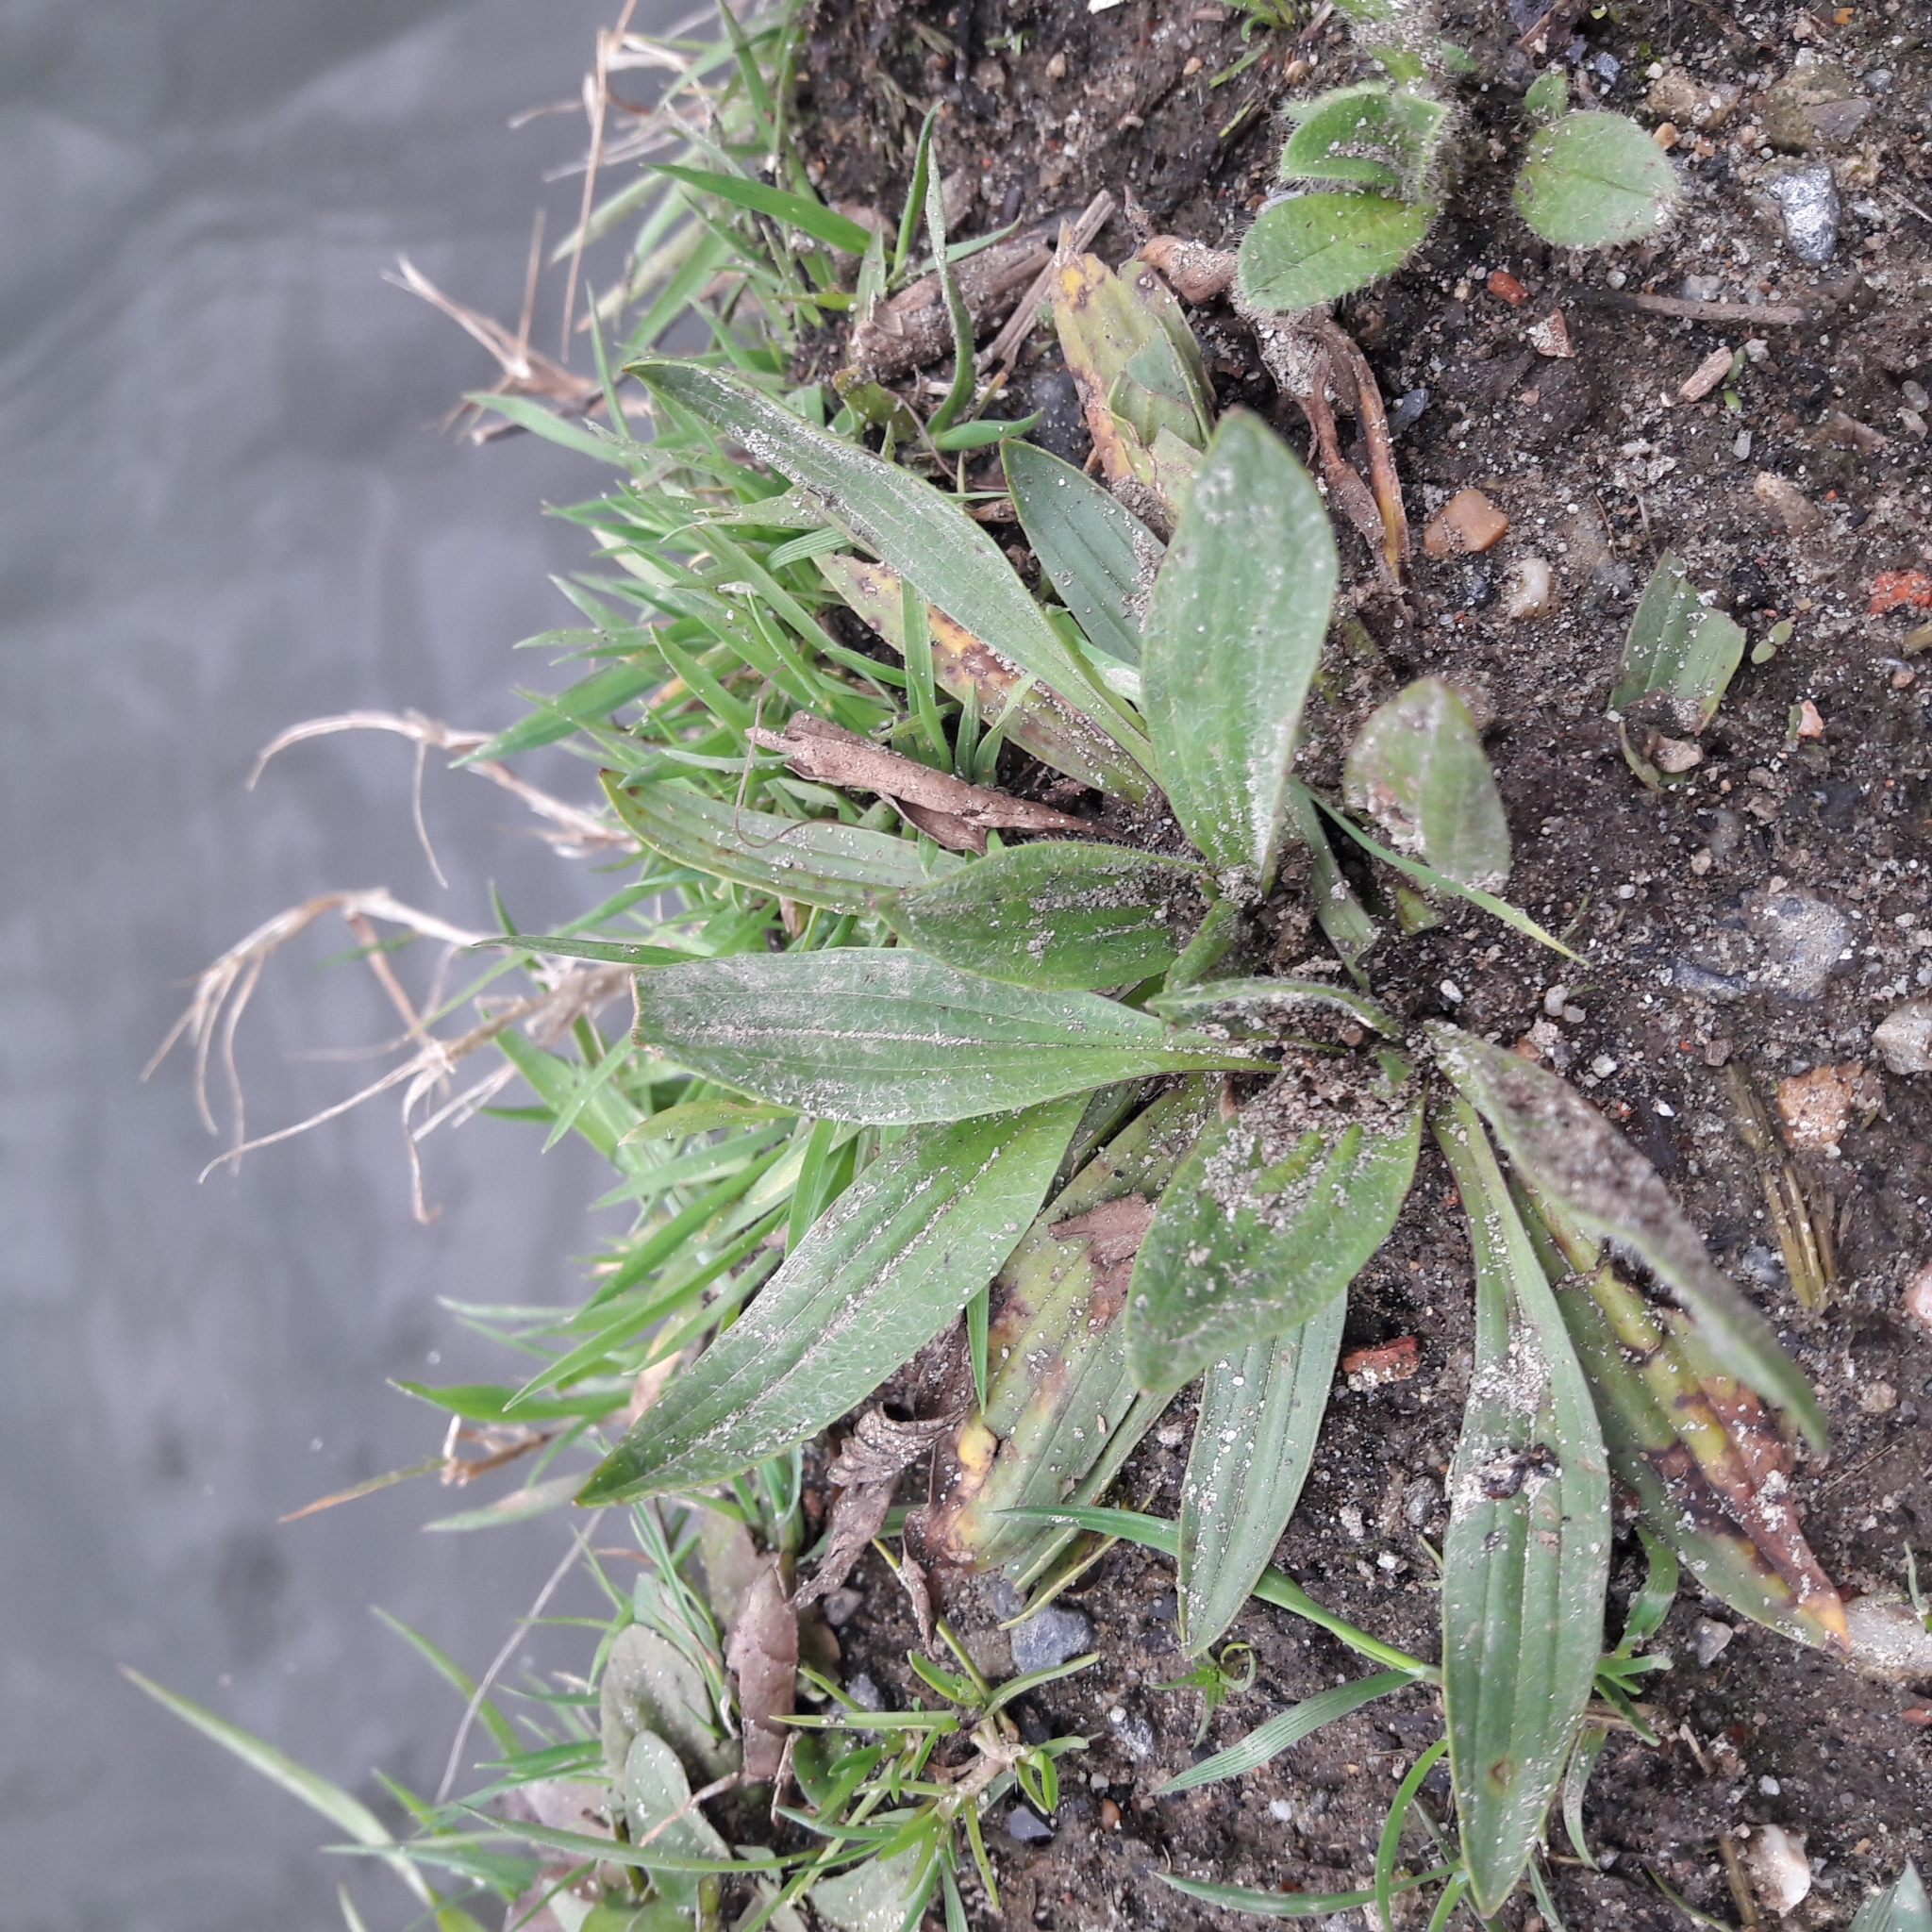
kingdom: Plantae
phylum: Tracheophyta
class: Magnoliopsida
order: Lamiales
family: Plantaginaceae
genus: Plantago
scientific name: Plantago lanceolata
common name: Ribwort plantain
